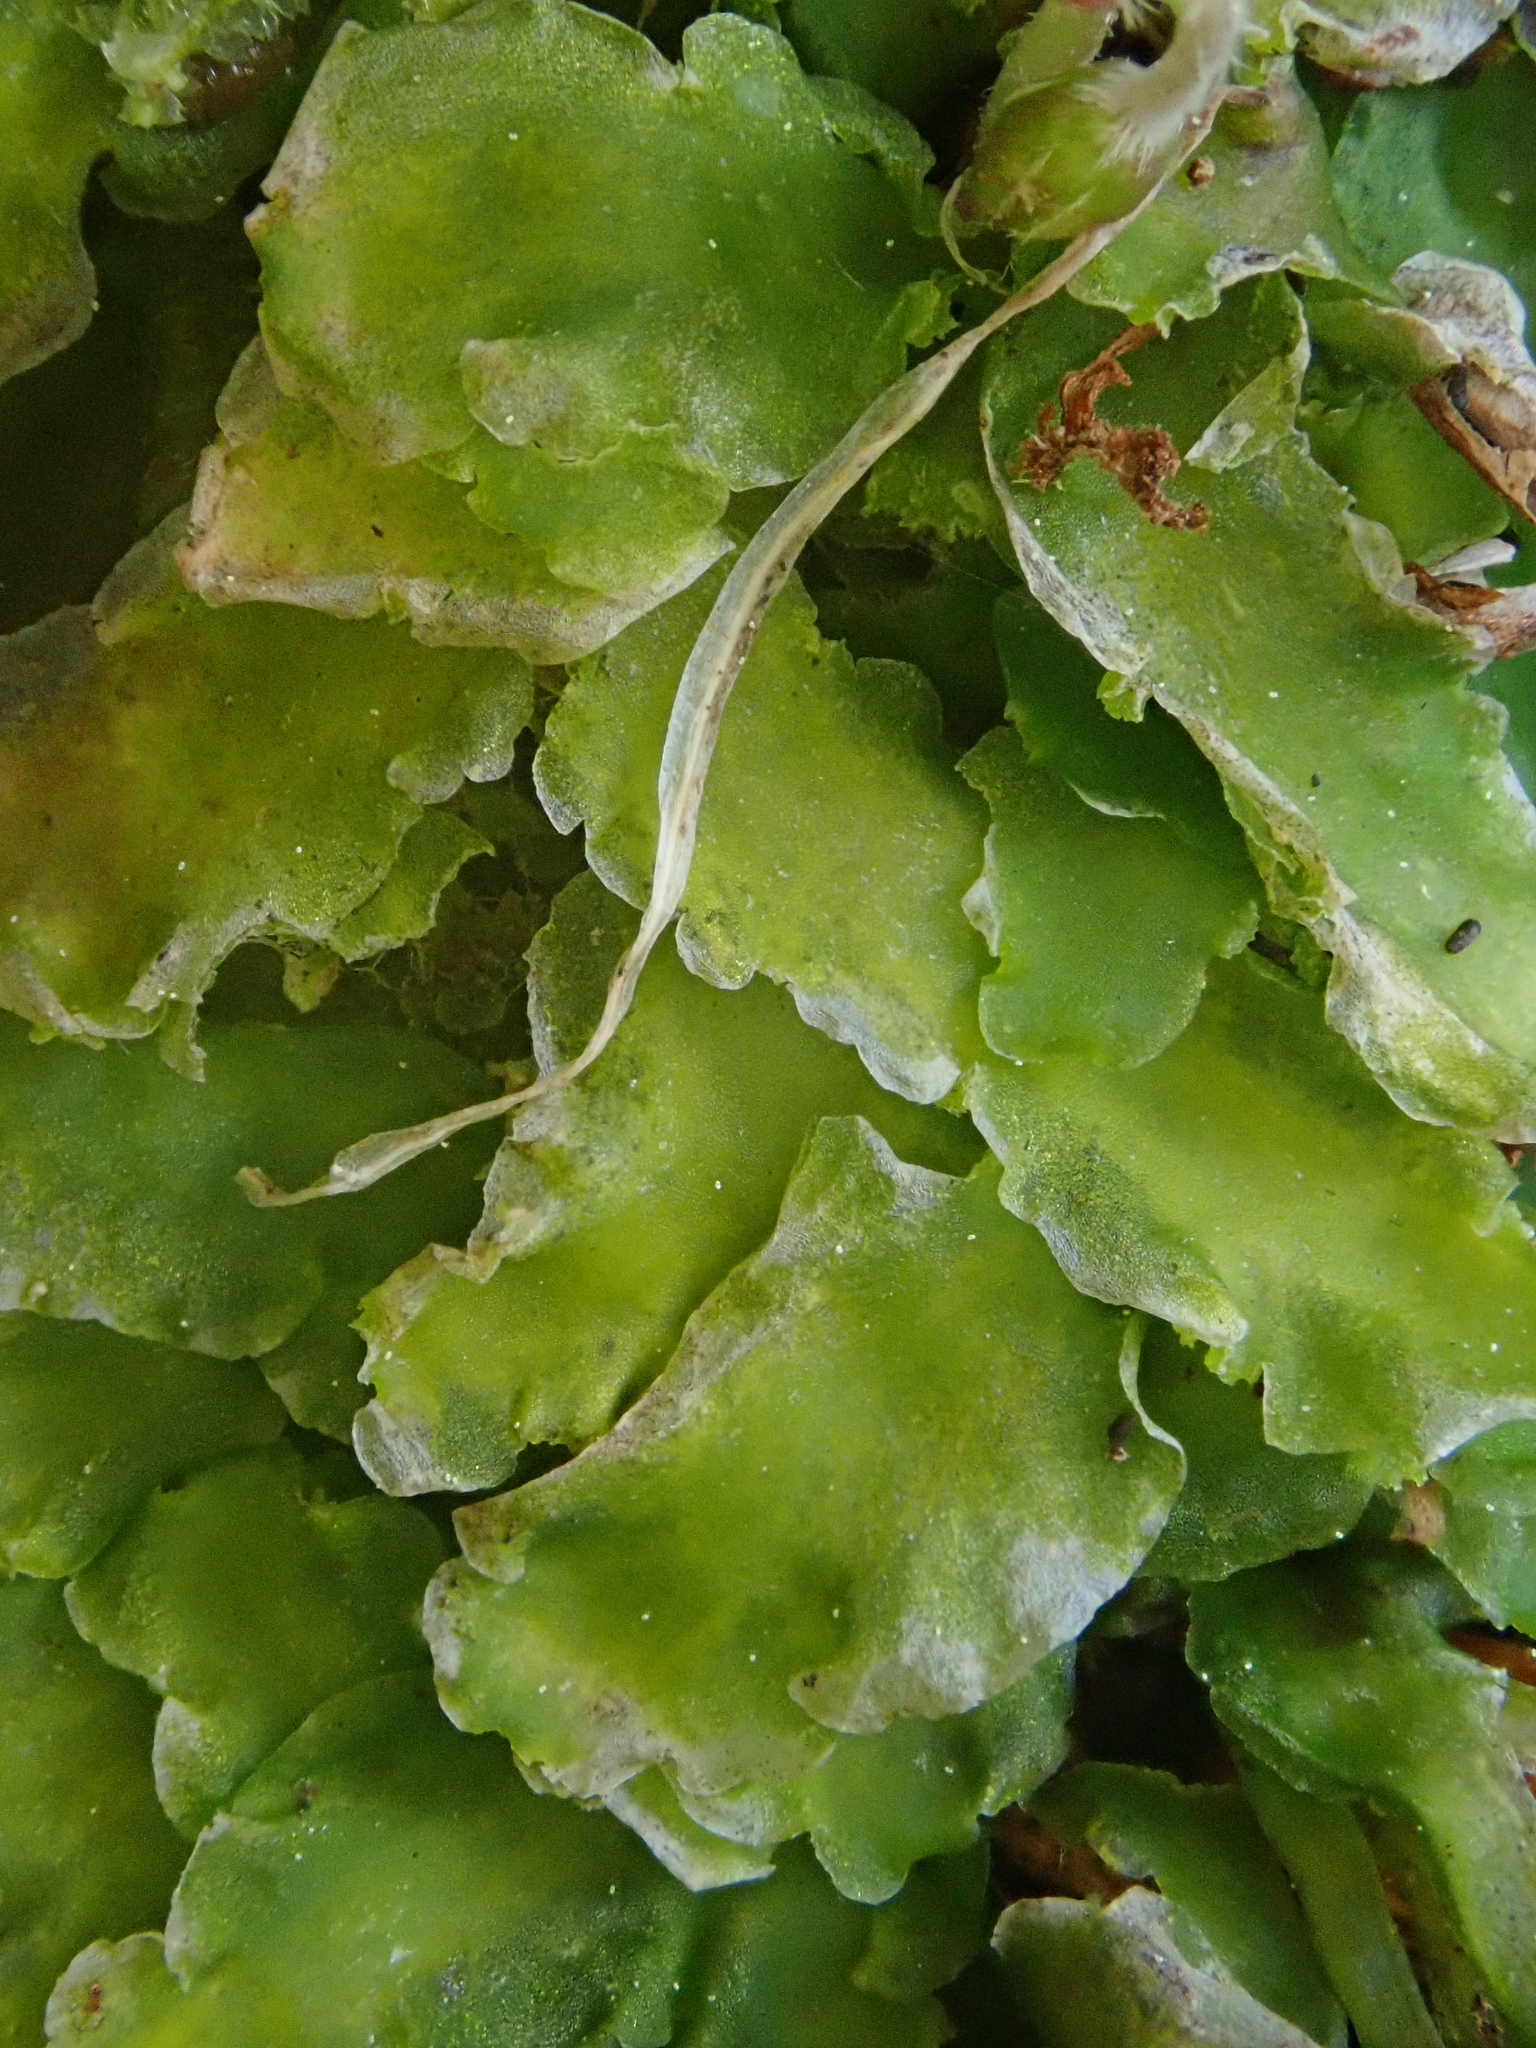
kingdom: Plantae
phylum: Marchantiophyta
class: Jungermanniopsida
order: Metzgeriales
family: Aneuraceae
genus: Aneura
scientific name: Aneura maxima
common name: Large greasewort
